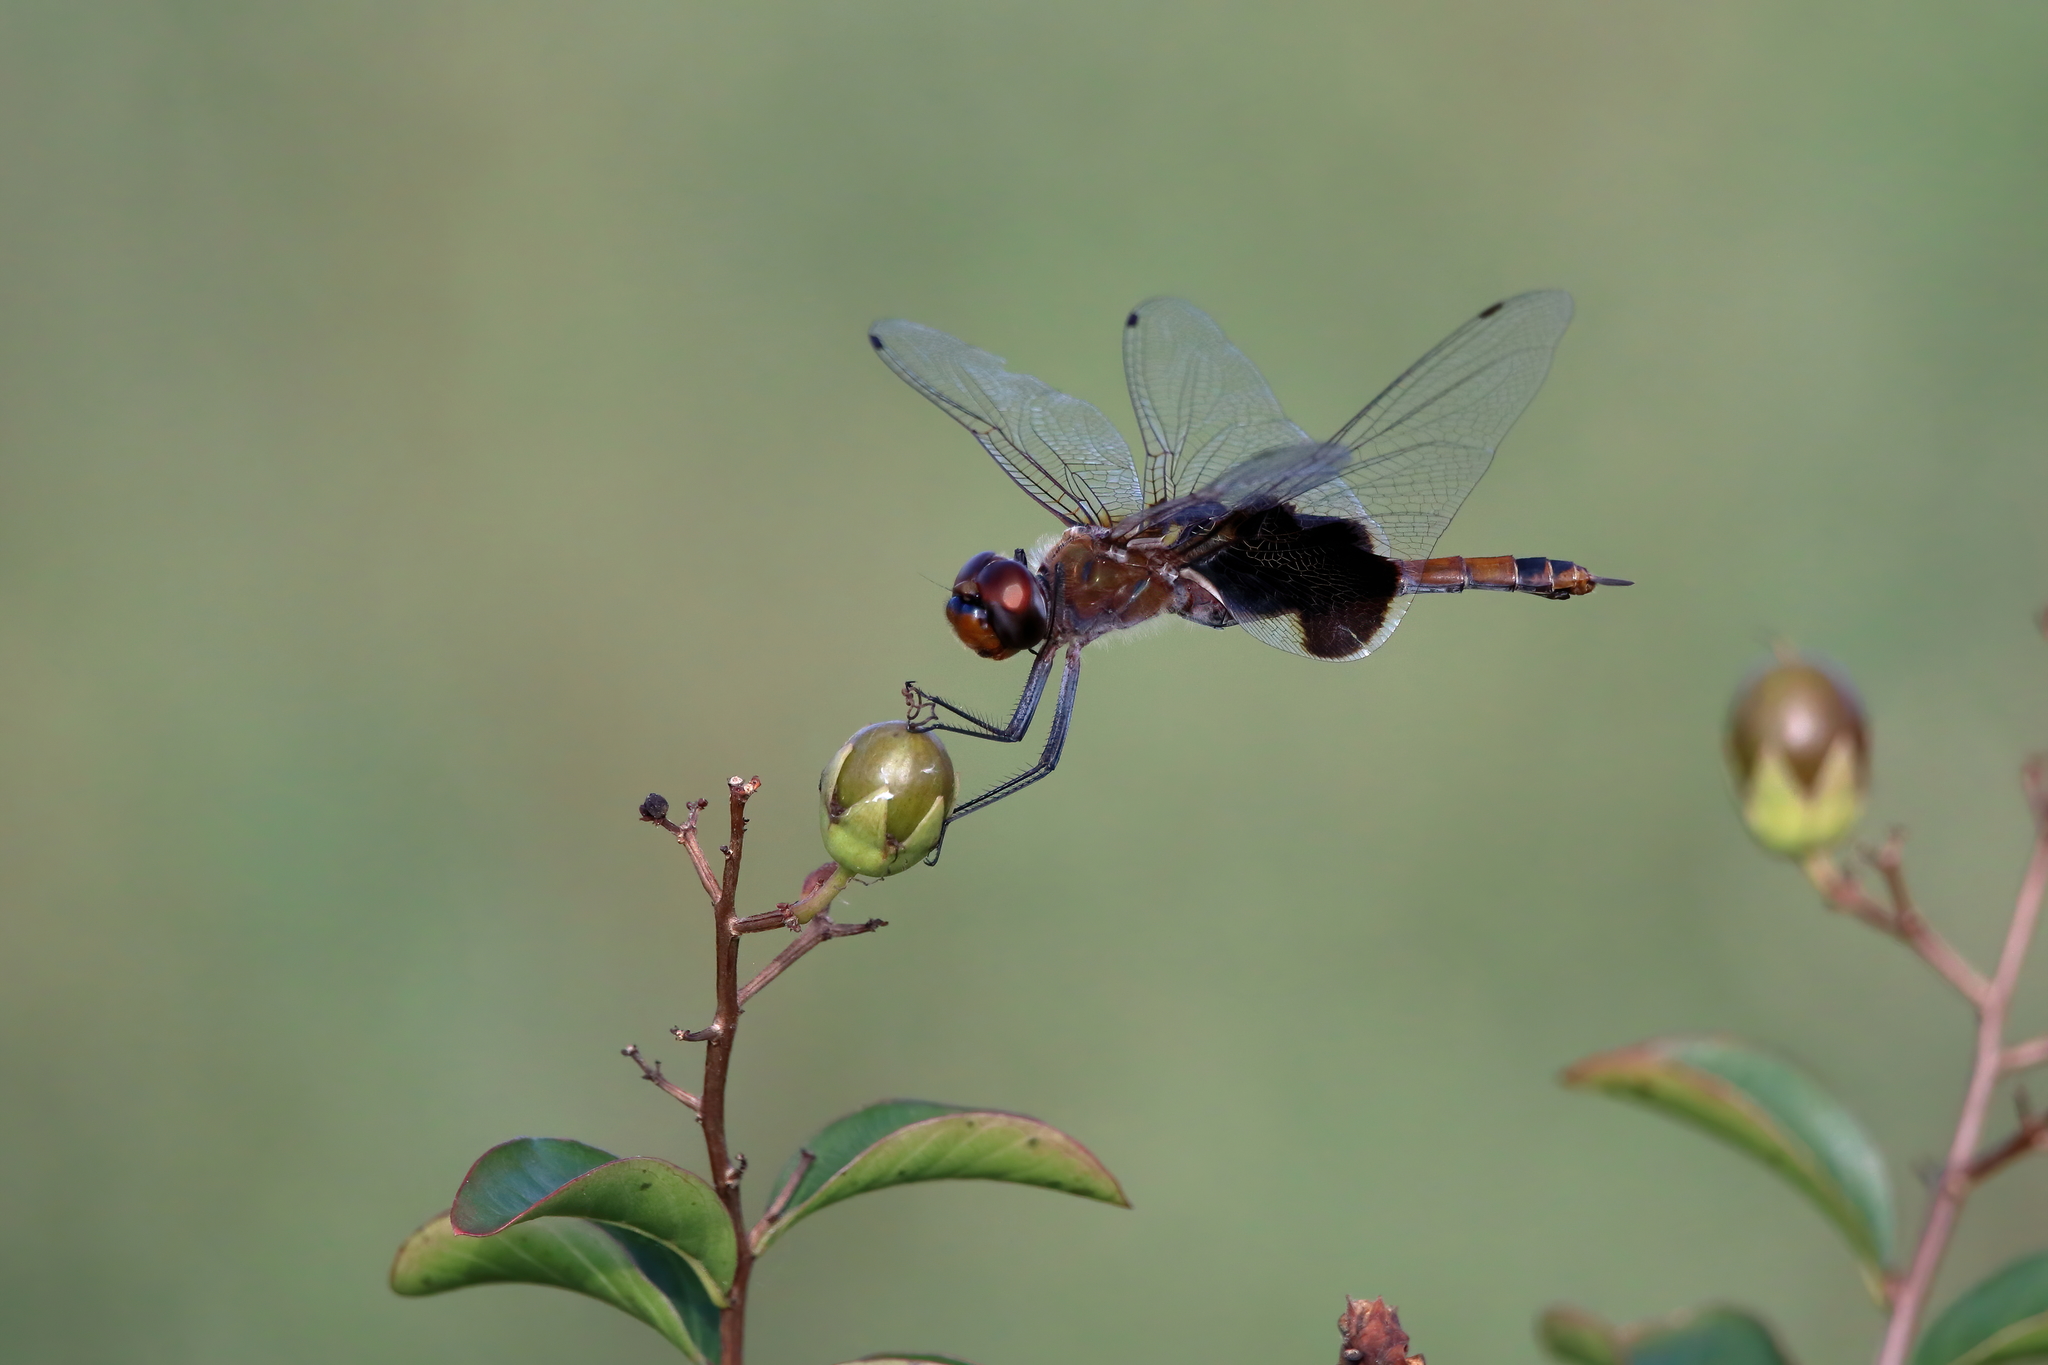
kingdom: Animalia
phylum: Arthropoda
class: Insecta
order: Odonata
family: Libellulidae
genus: Tramea
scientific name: Tramea carolina
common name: Carolina saddlebags
